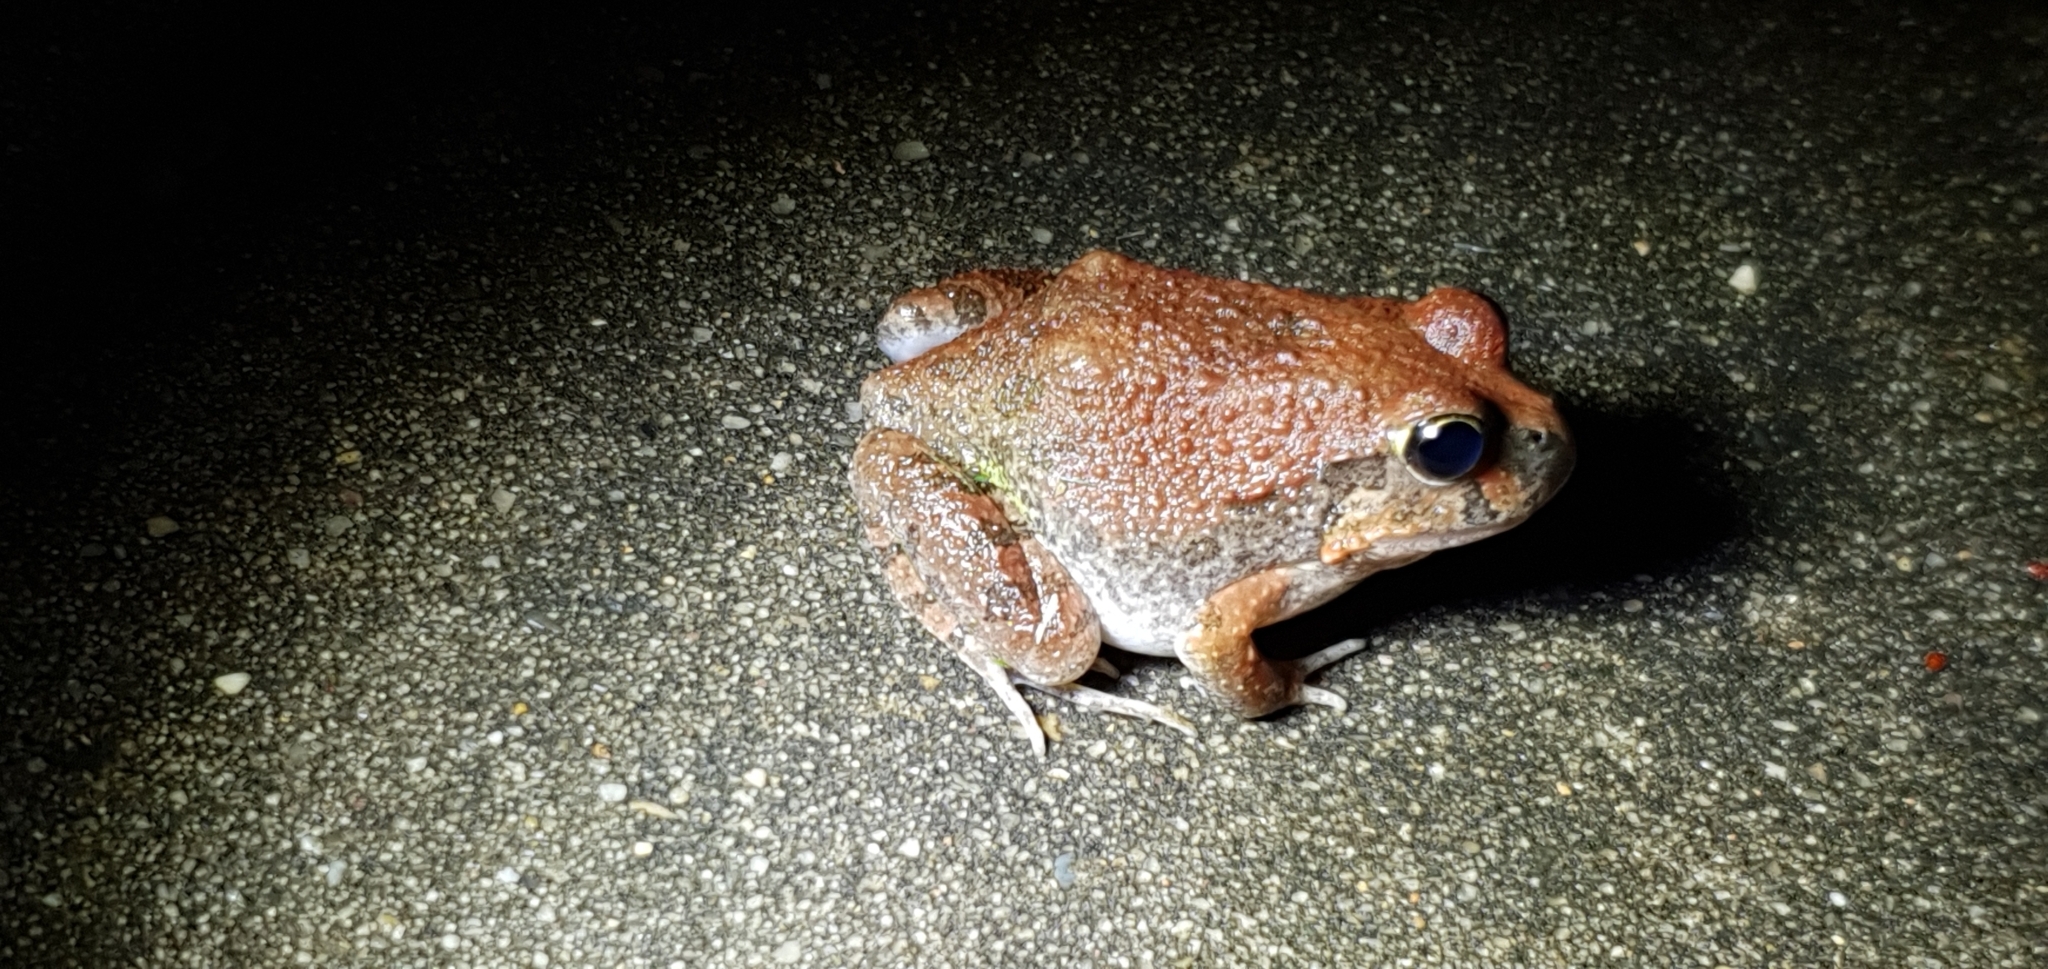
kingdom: Animalia
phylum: Chordata
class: Amphibia
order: Anura
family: Limnodynastidae
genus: Platyplectrum
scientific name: Platyplectrum ornatum
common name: Ornate burrowing frog
